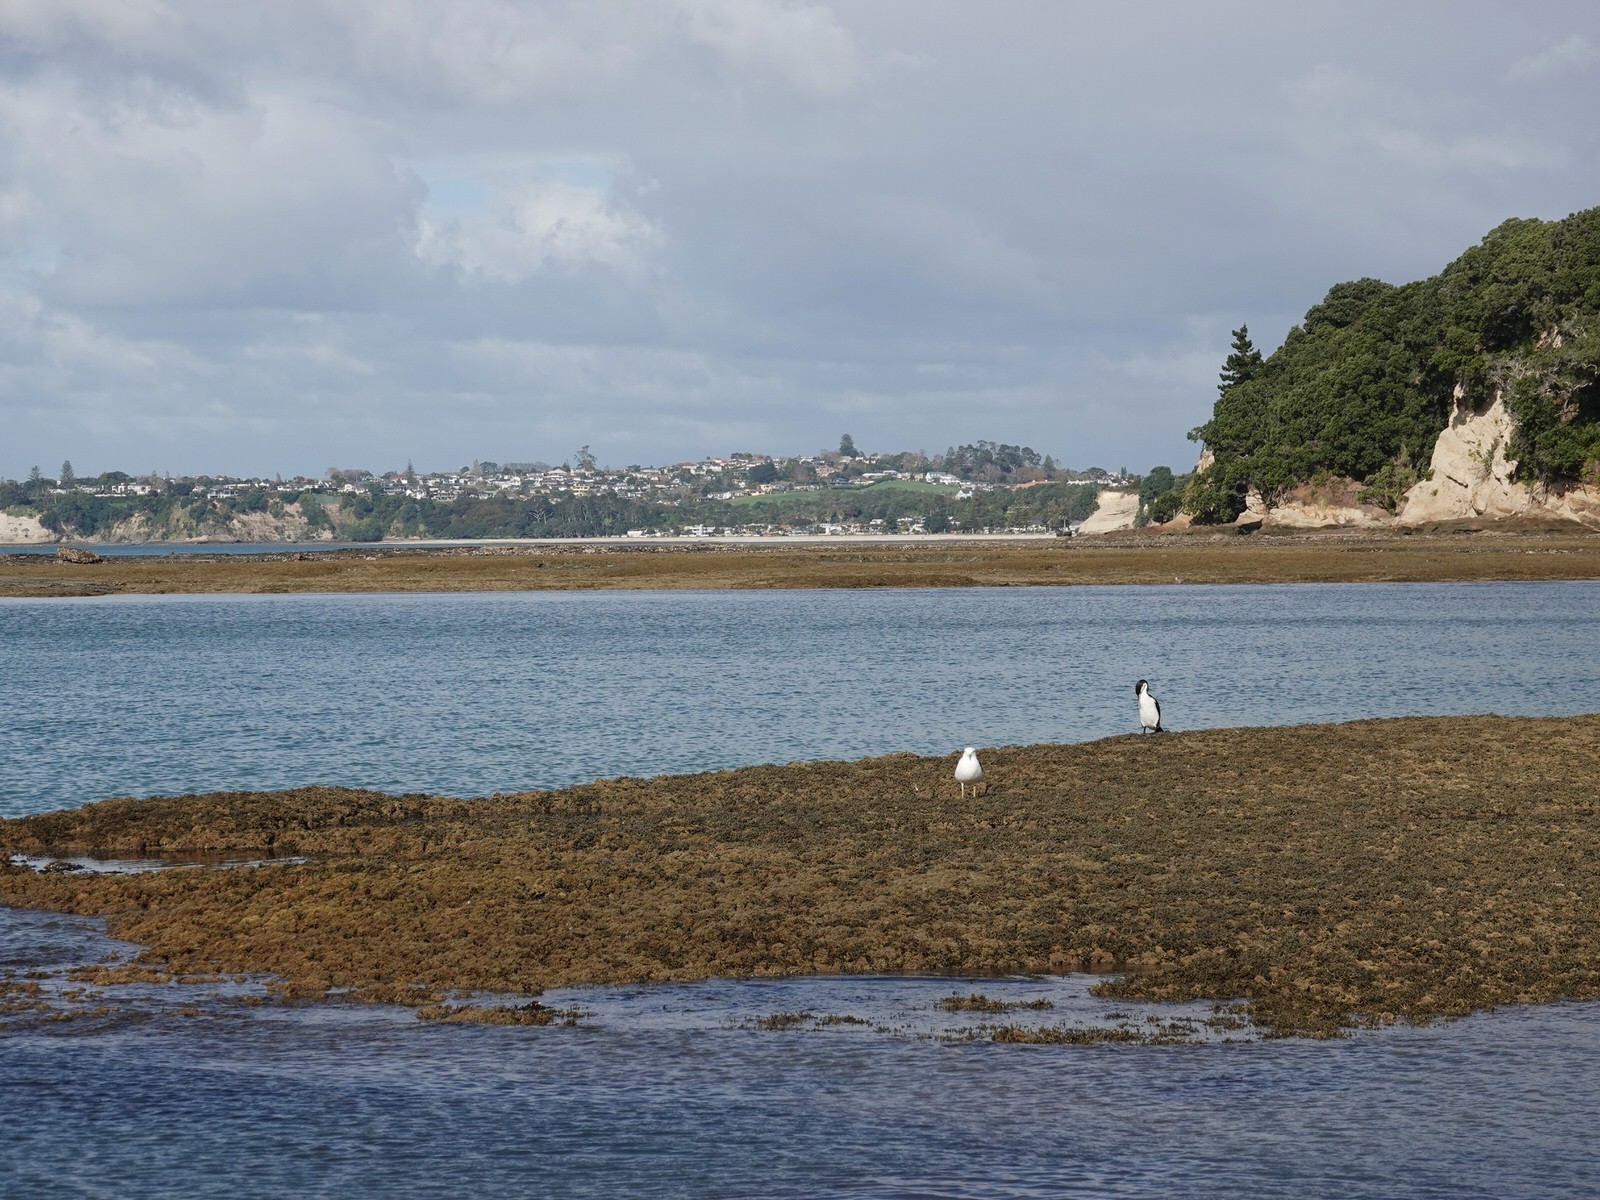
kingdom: Animalia
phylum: Chordata
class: Aves
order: Suliformes
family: Phalacrocoracidae
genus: Phalacrocorax
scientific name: Phalacrocorax varius
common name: Pied cormorant
